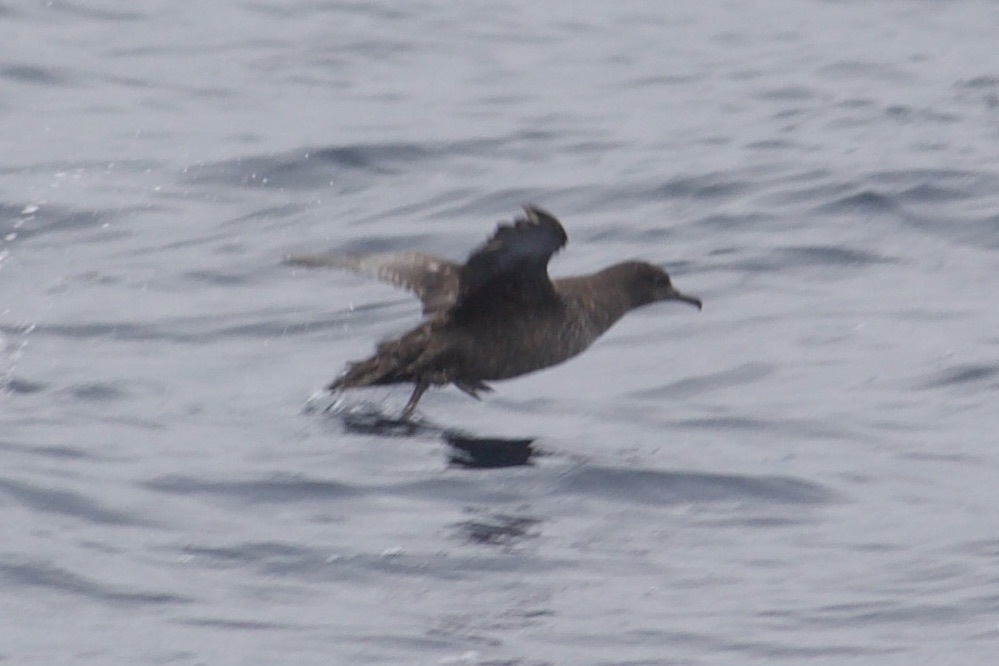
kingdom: Animalia
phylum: Chordata
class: Aves
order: Procellariiformes
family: Procellariidae
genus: Puffinus
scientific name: Puffinus griseus
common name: Sooty shearwater
